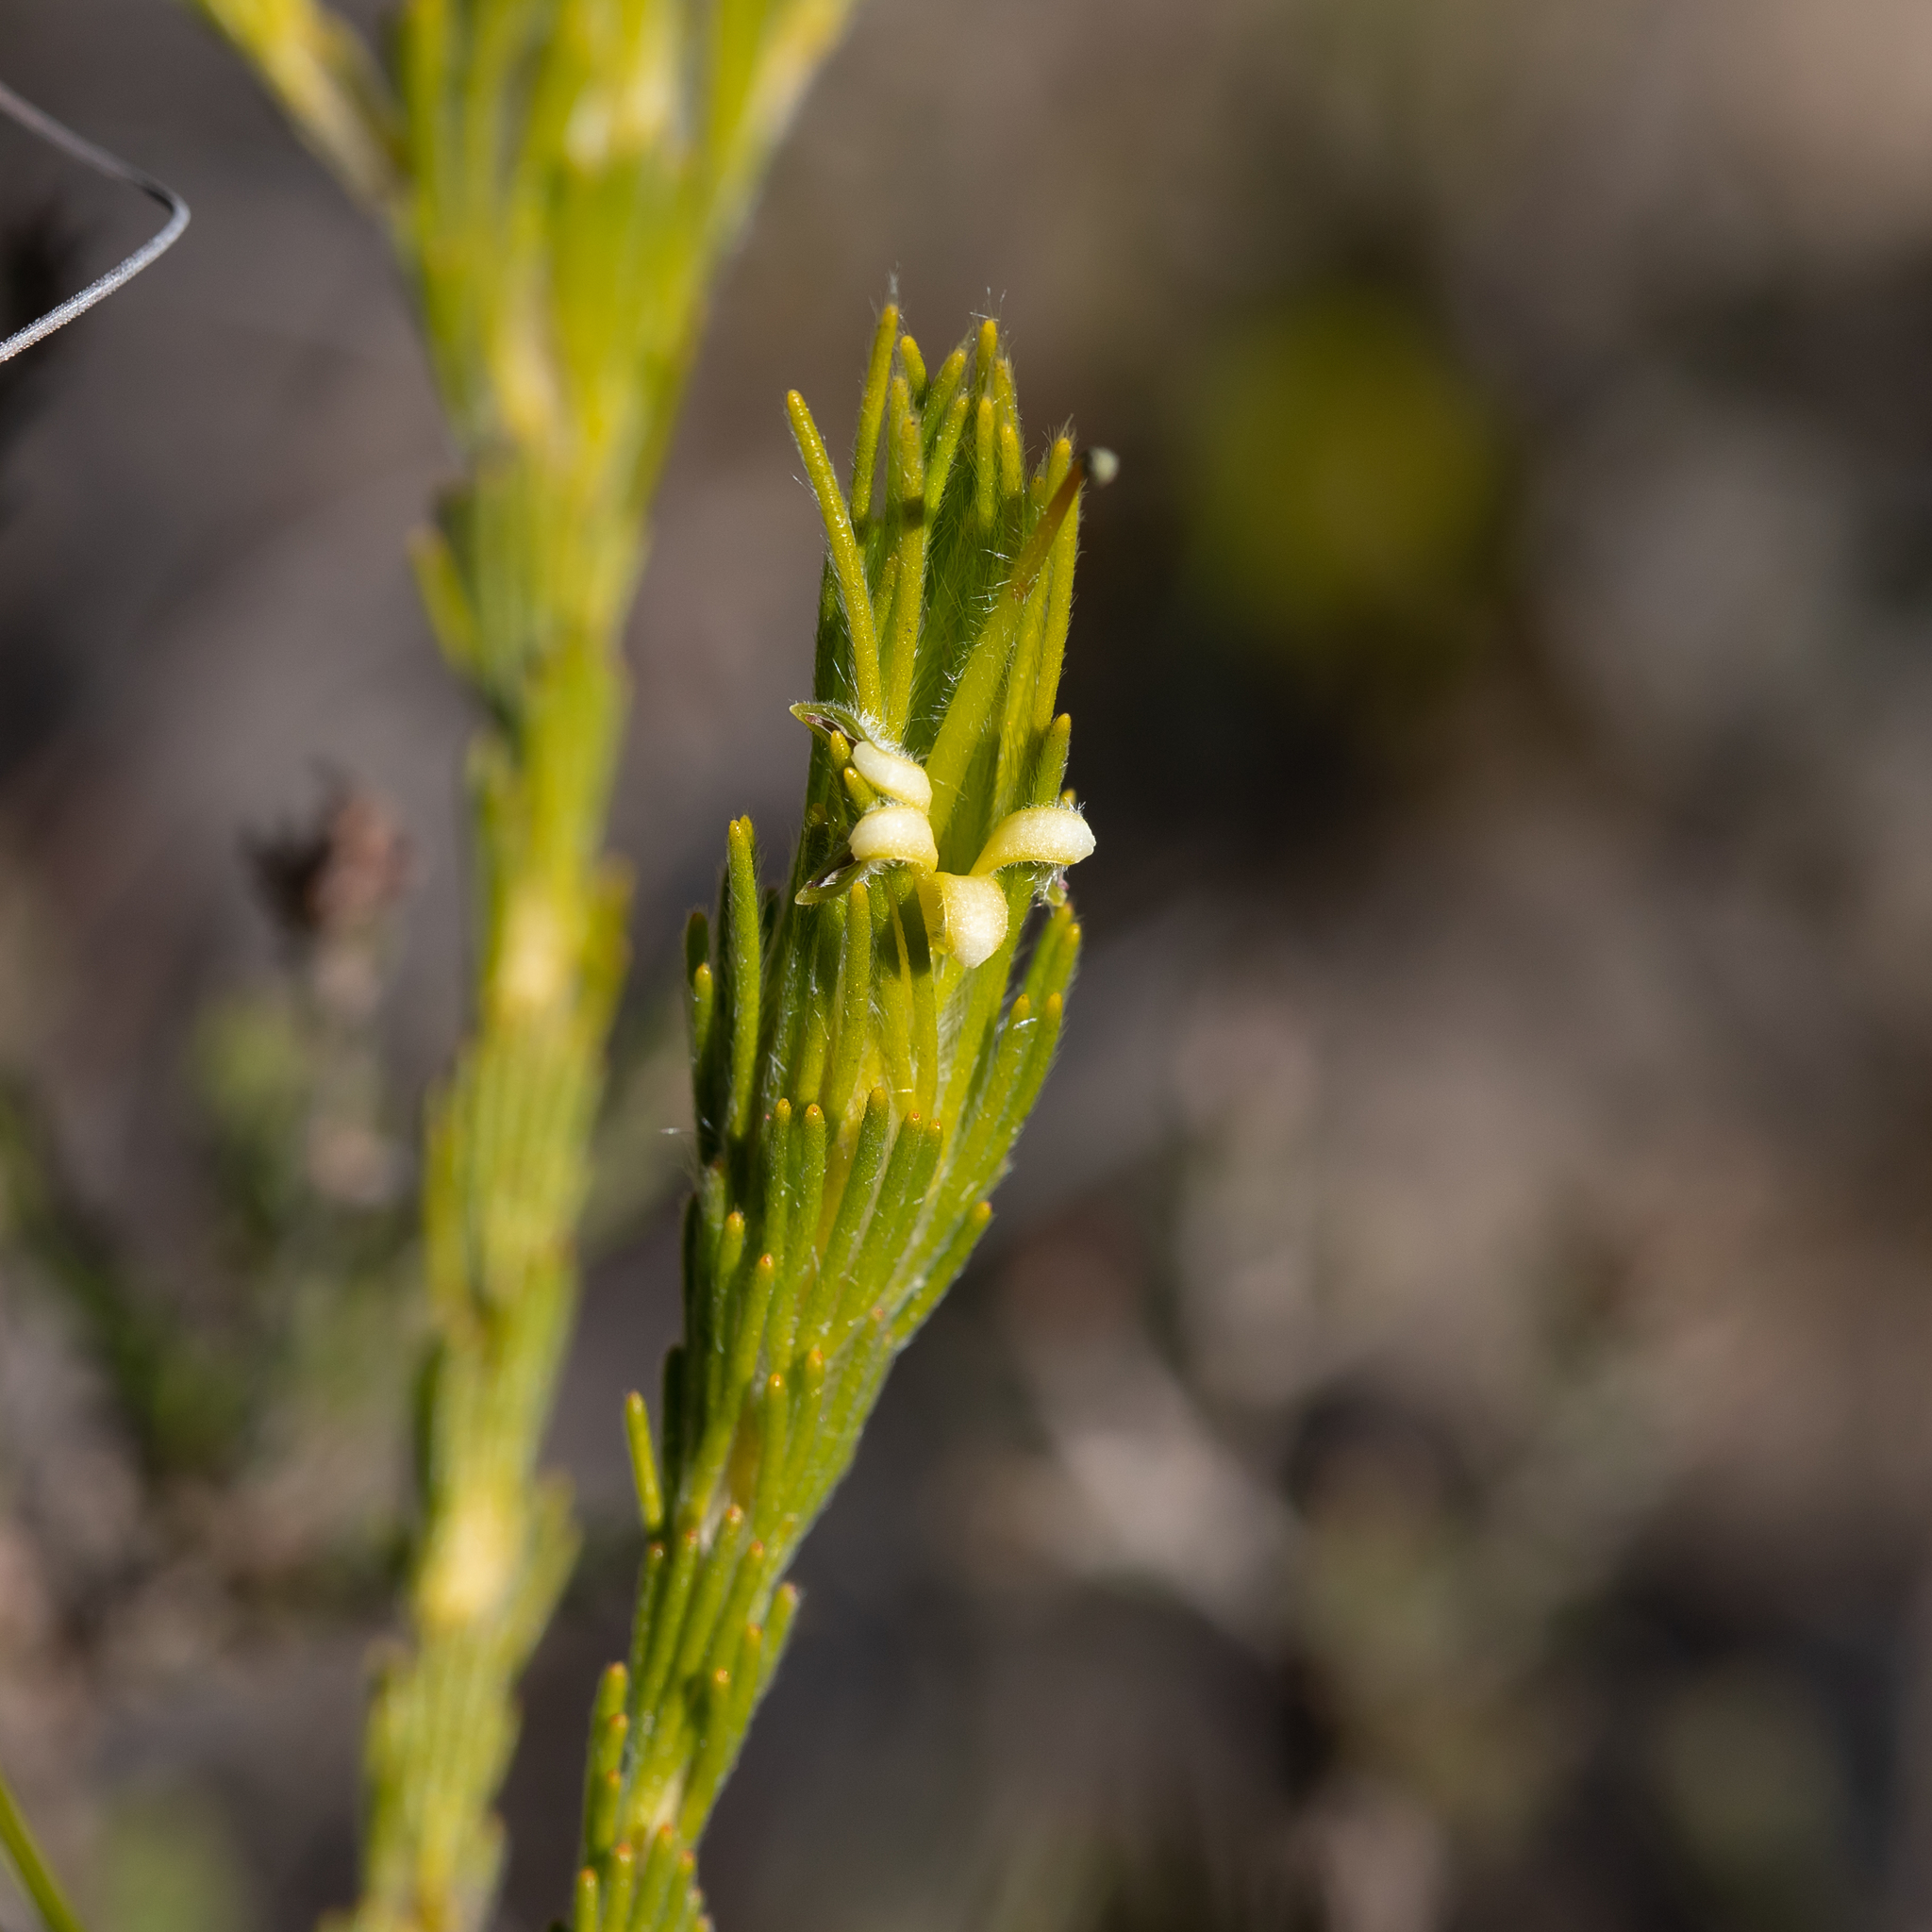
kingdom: Plantae
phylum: Tracheophyta
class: Magnoliopsida
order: Proteales
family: Proteaceae
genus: Adenanthos
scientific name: Adenanthos terminalis
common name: Yellow gland-flower
